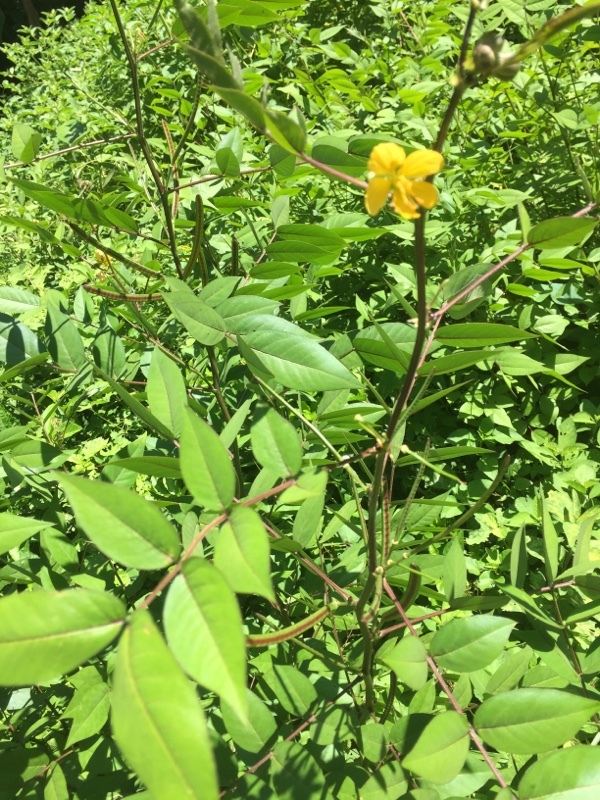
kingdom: Plantae
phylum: Tracheophyta
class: Magnoliopsida
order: Fabales
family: Fabaceae
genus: Senna
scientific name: Senna occidentalis
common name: Septicweed
